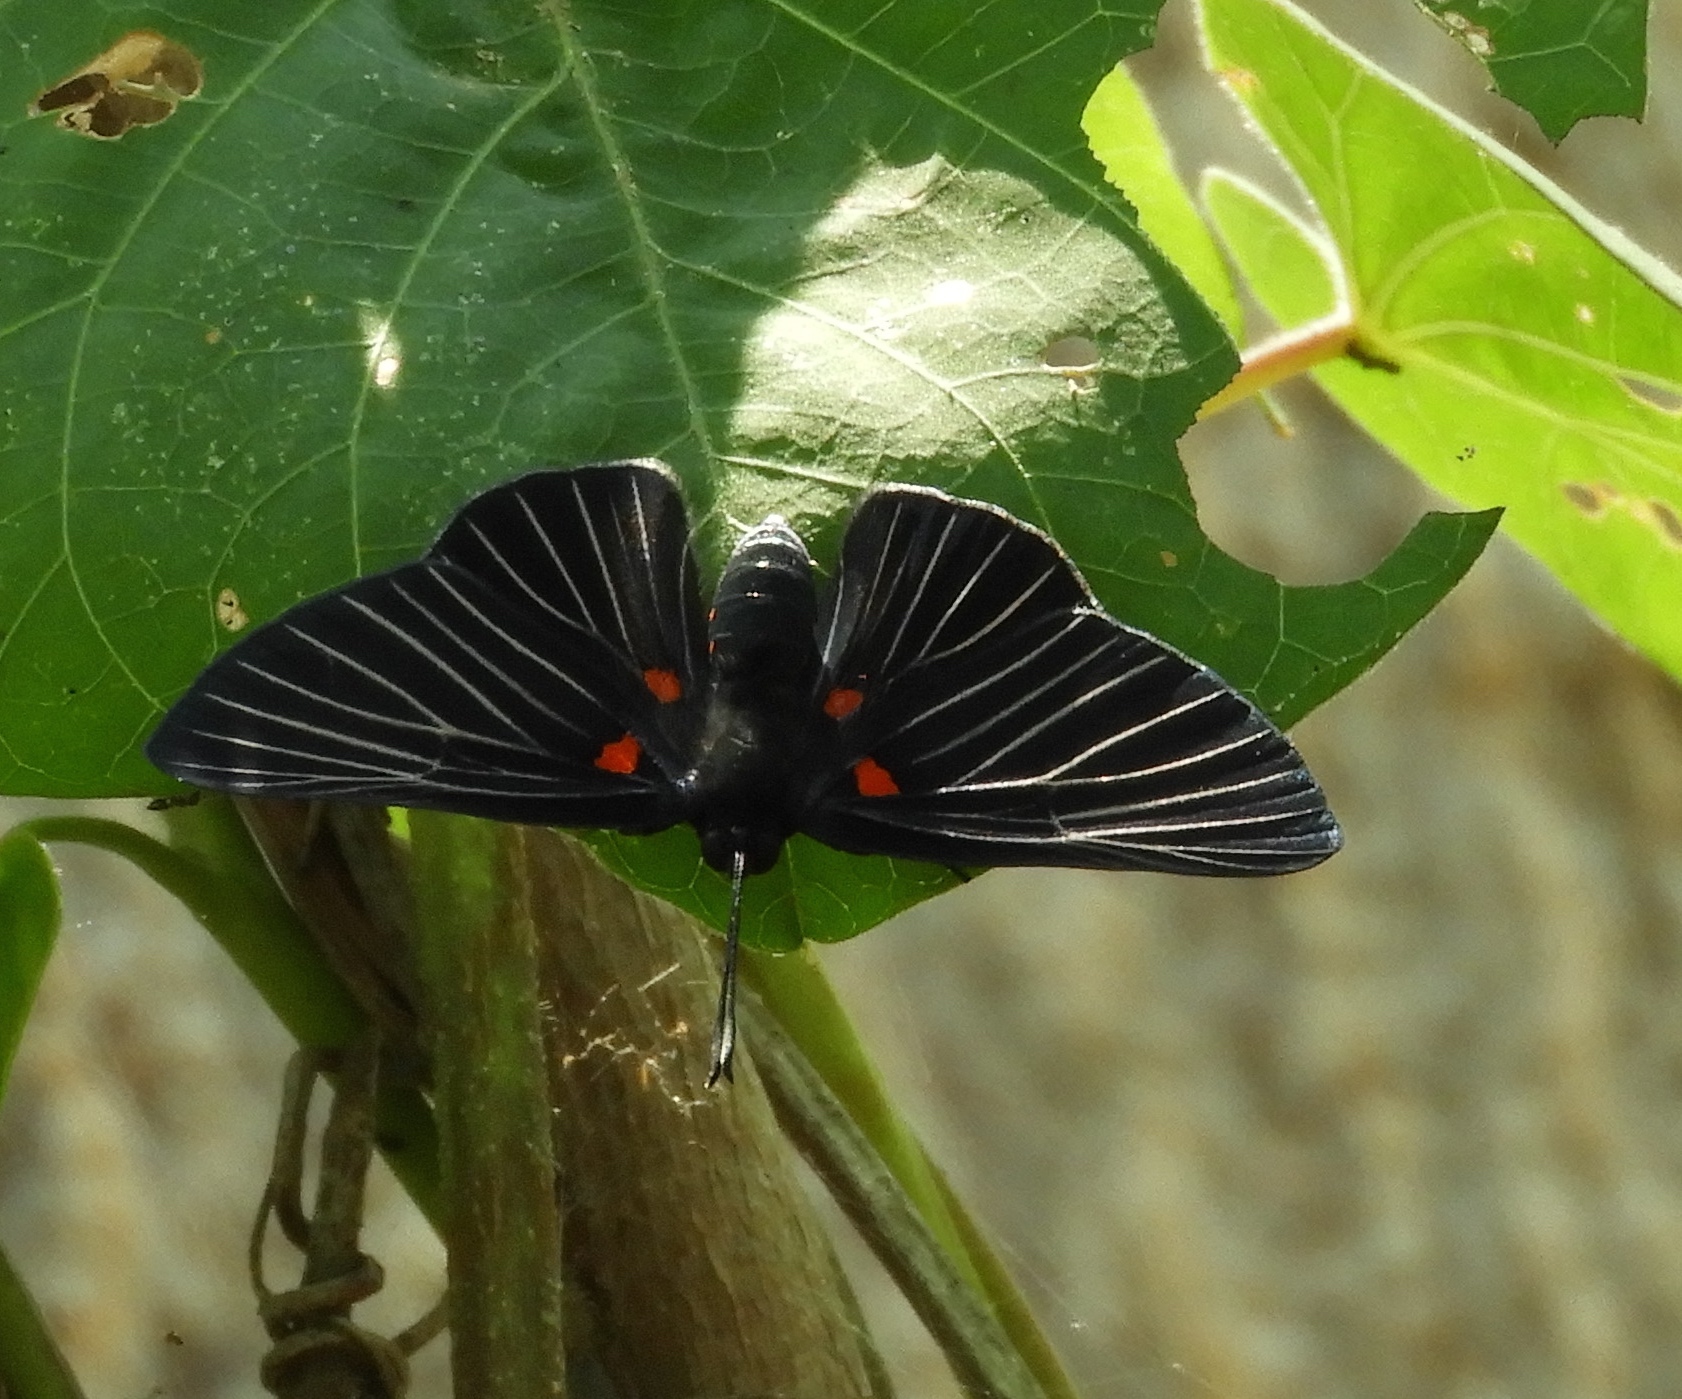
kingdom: Animalia
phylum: Arthropoda
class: Insecta
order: Lepidoptera
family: Lycaenidae
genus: Melanis
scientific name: Melanis
